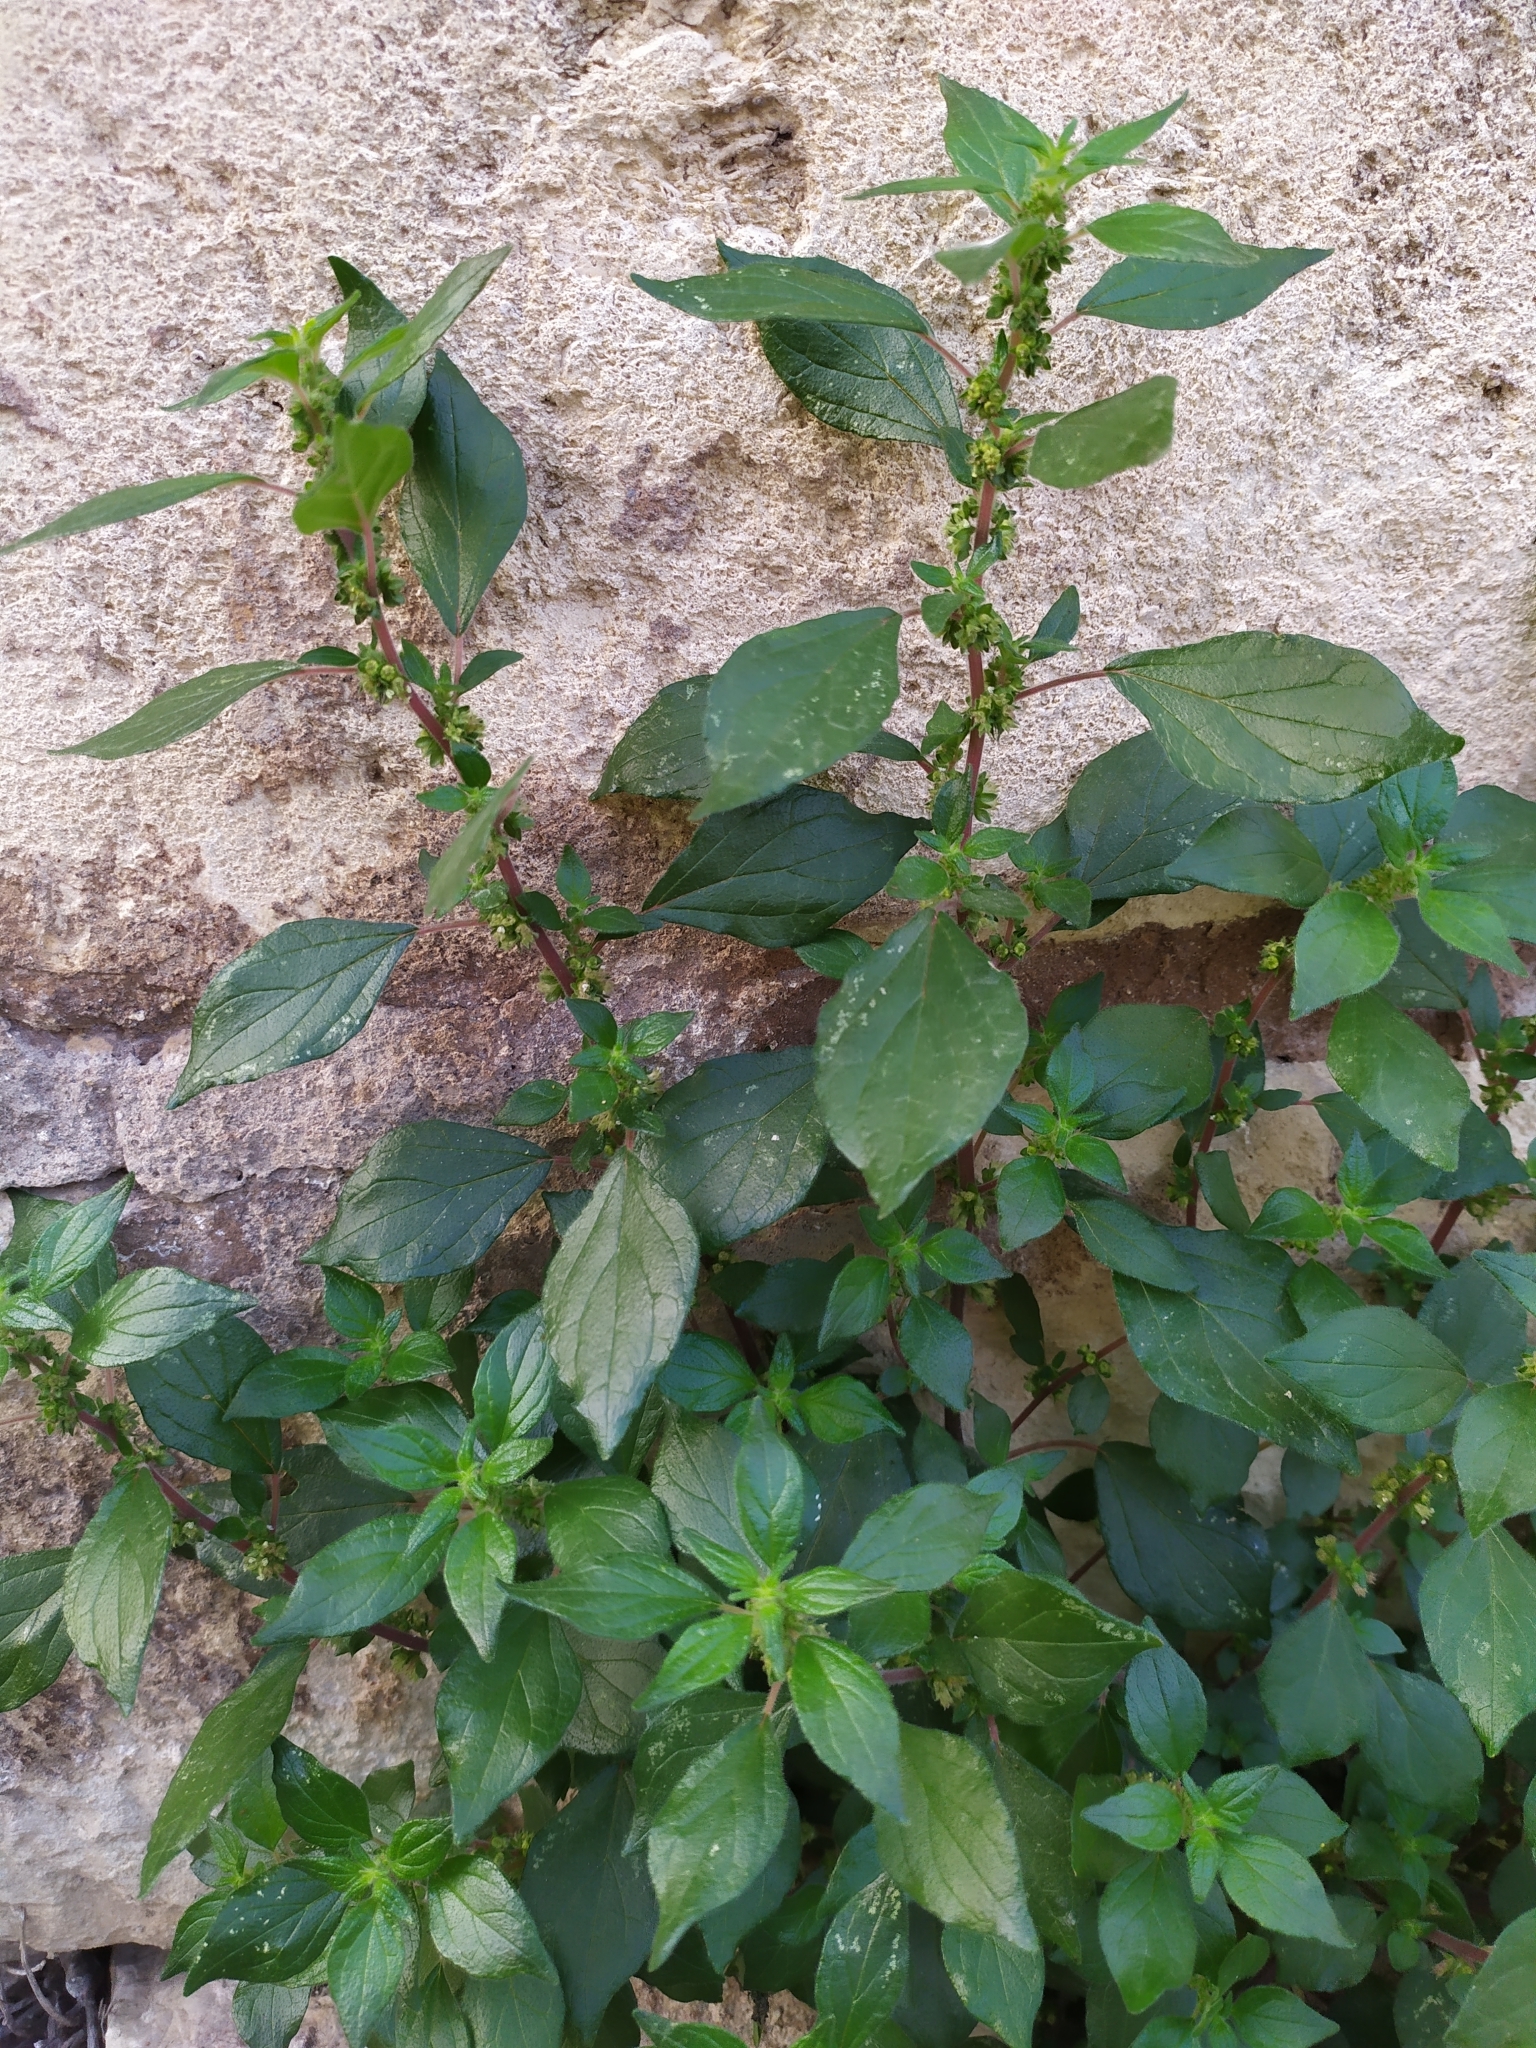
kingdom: Plantae
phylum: Tracheophyta
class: Magnoliopsida
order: Rosales
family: Urticaceae
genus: Parietaria
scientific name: Parietaria judaica
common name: Pellitory-of-the-wall
